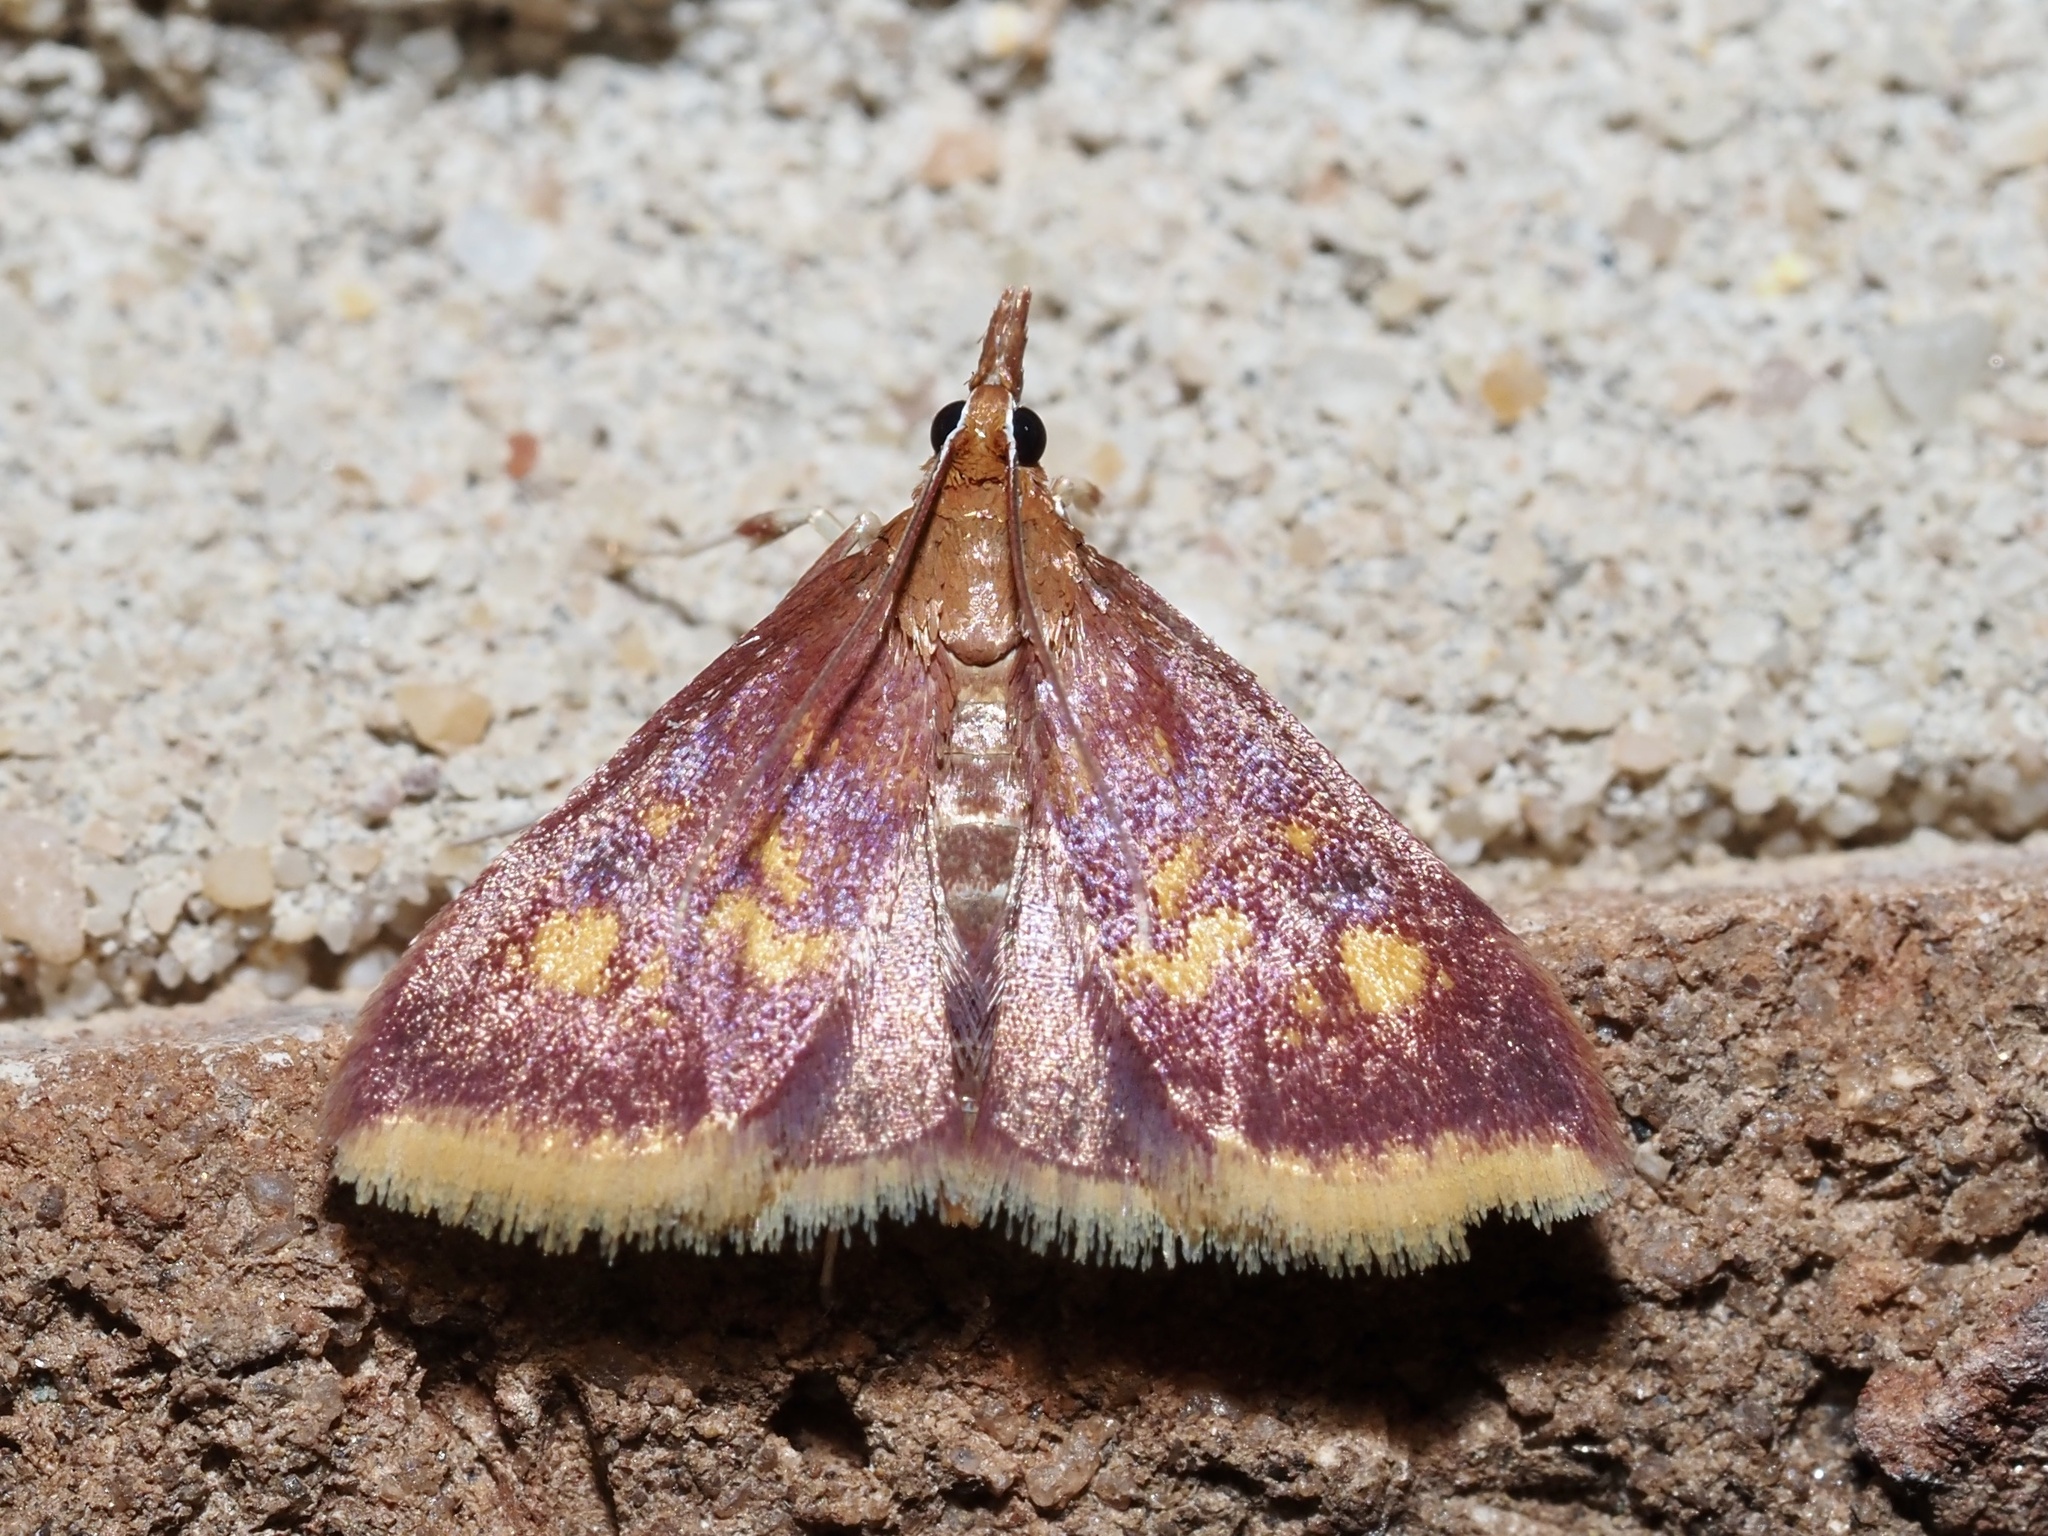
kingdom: Animalia
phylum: Arthropoda
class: Insecta
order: Lepidoptera
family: Crambidae
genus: Pyrausta
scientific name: Pyrausta acrionalis
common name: Mint-loving pyrausta moth
